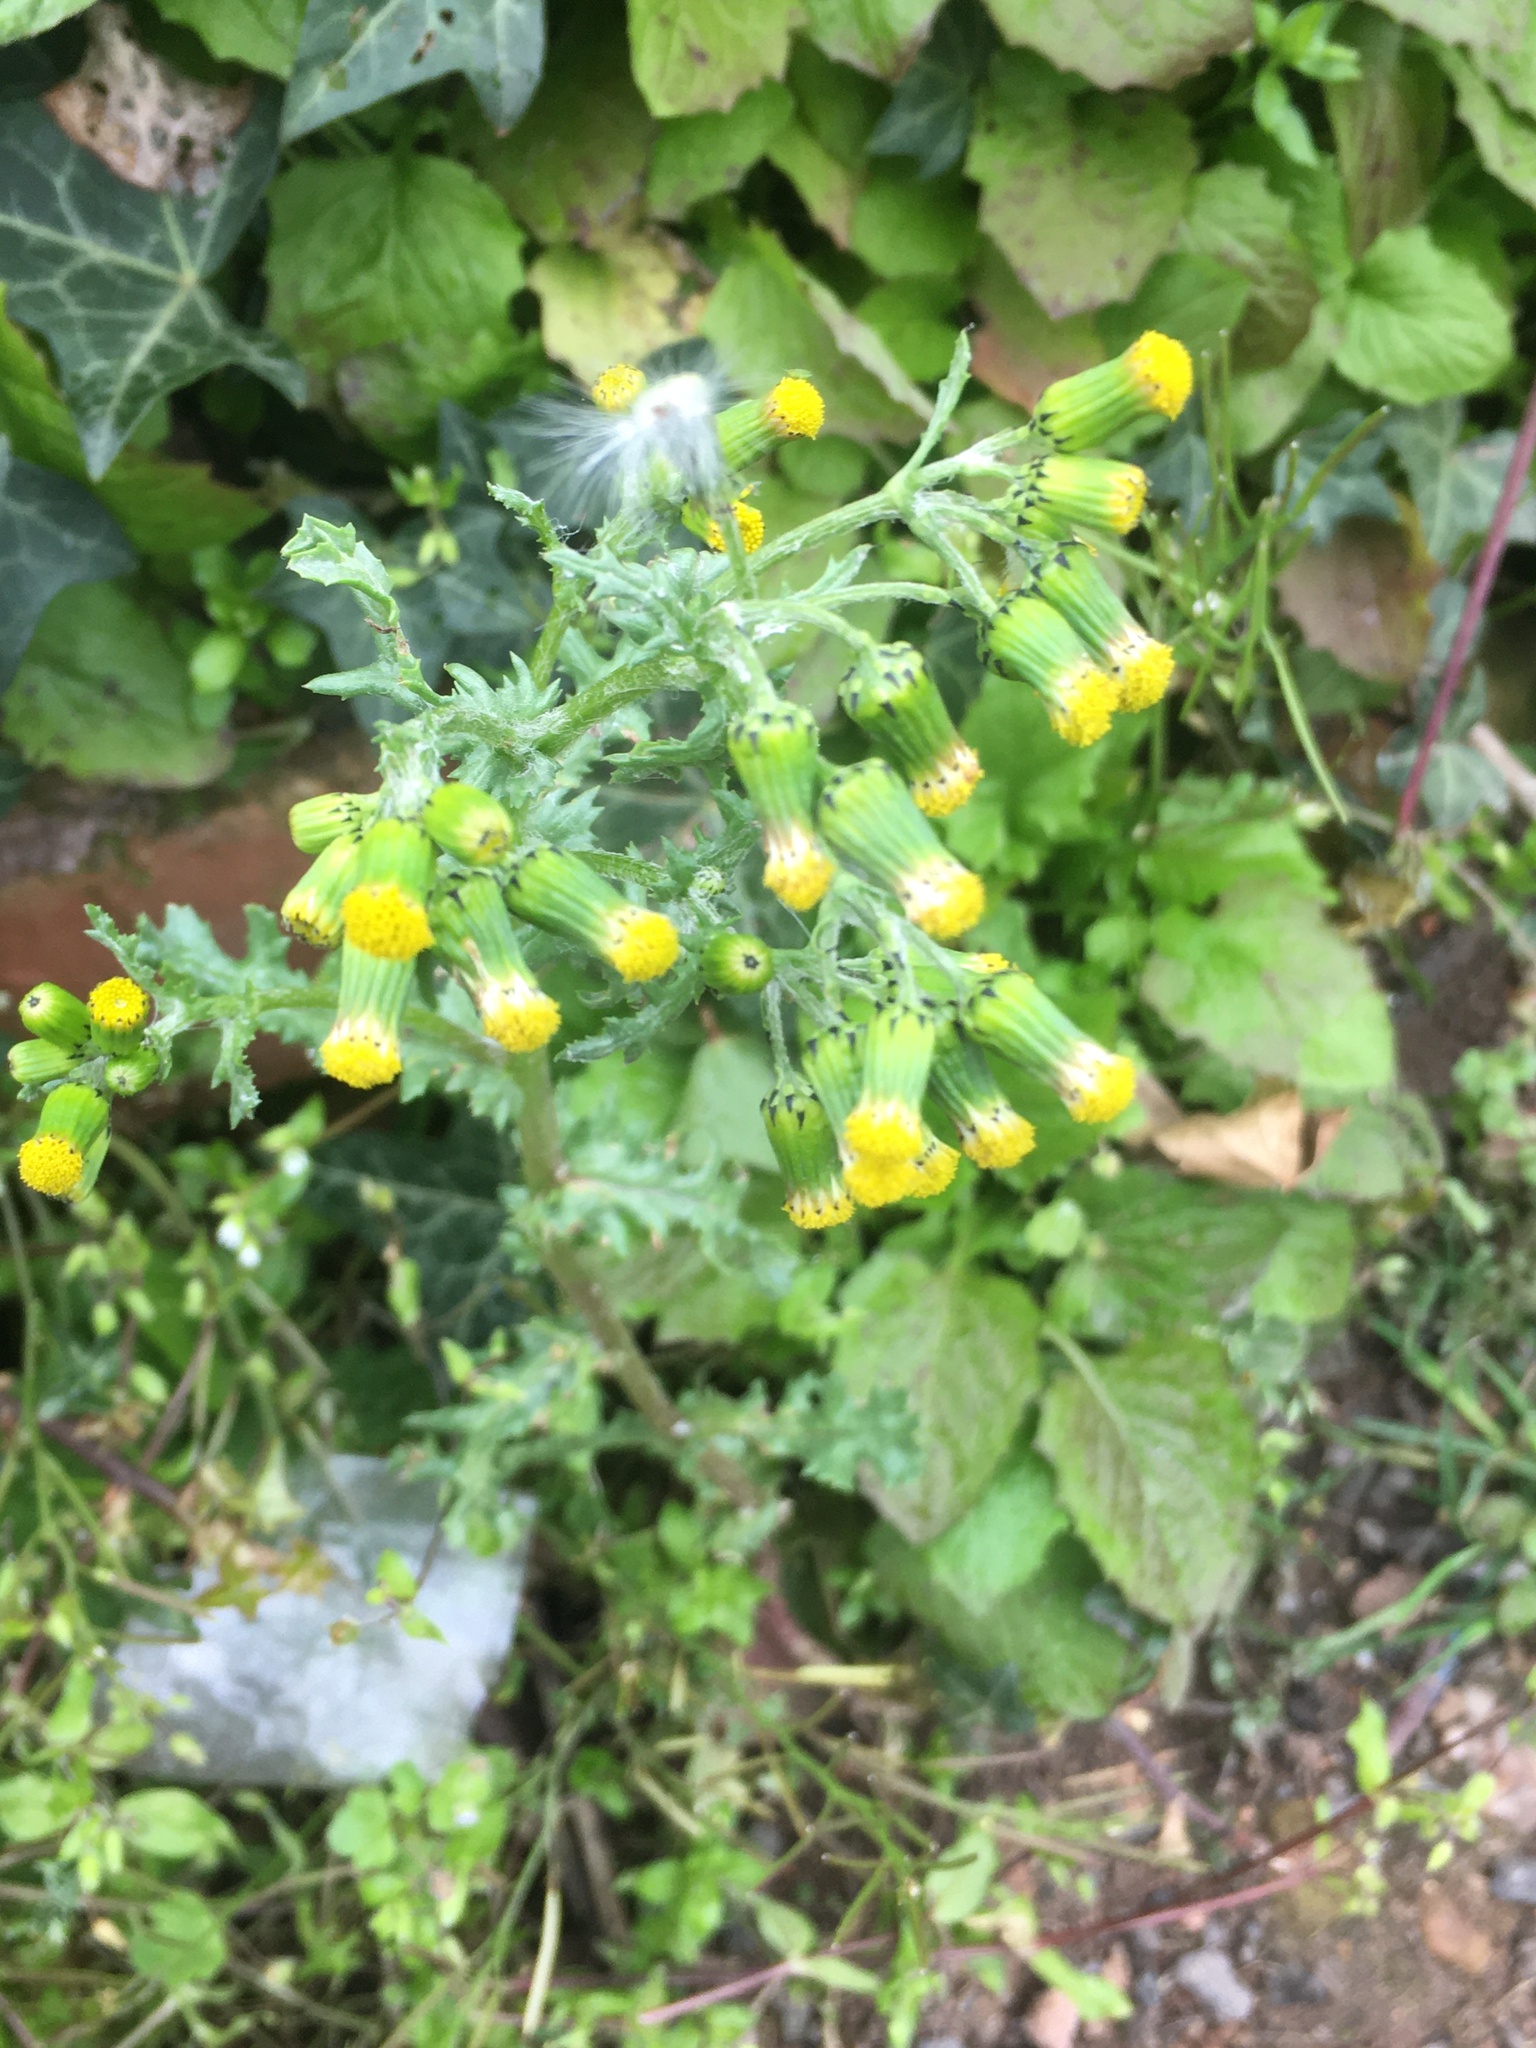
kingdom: Plantae
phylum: Tracheophyta
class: Magnoliopsida
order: Asterales
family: Asteraceae
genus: Senecio
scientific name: Senecio vulgaris
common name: Old-man-in-the-spring
